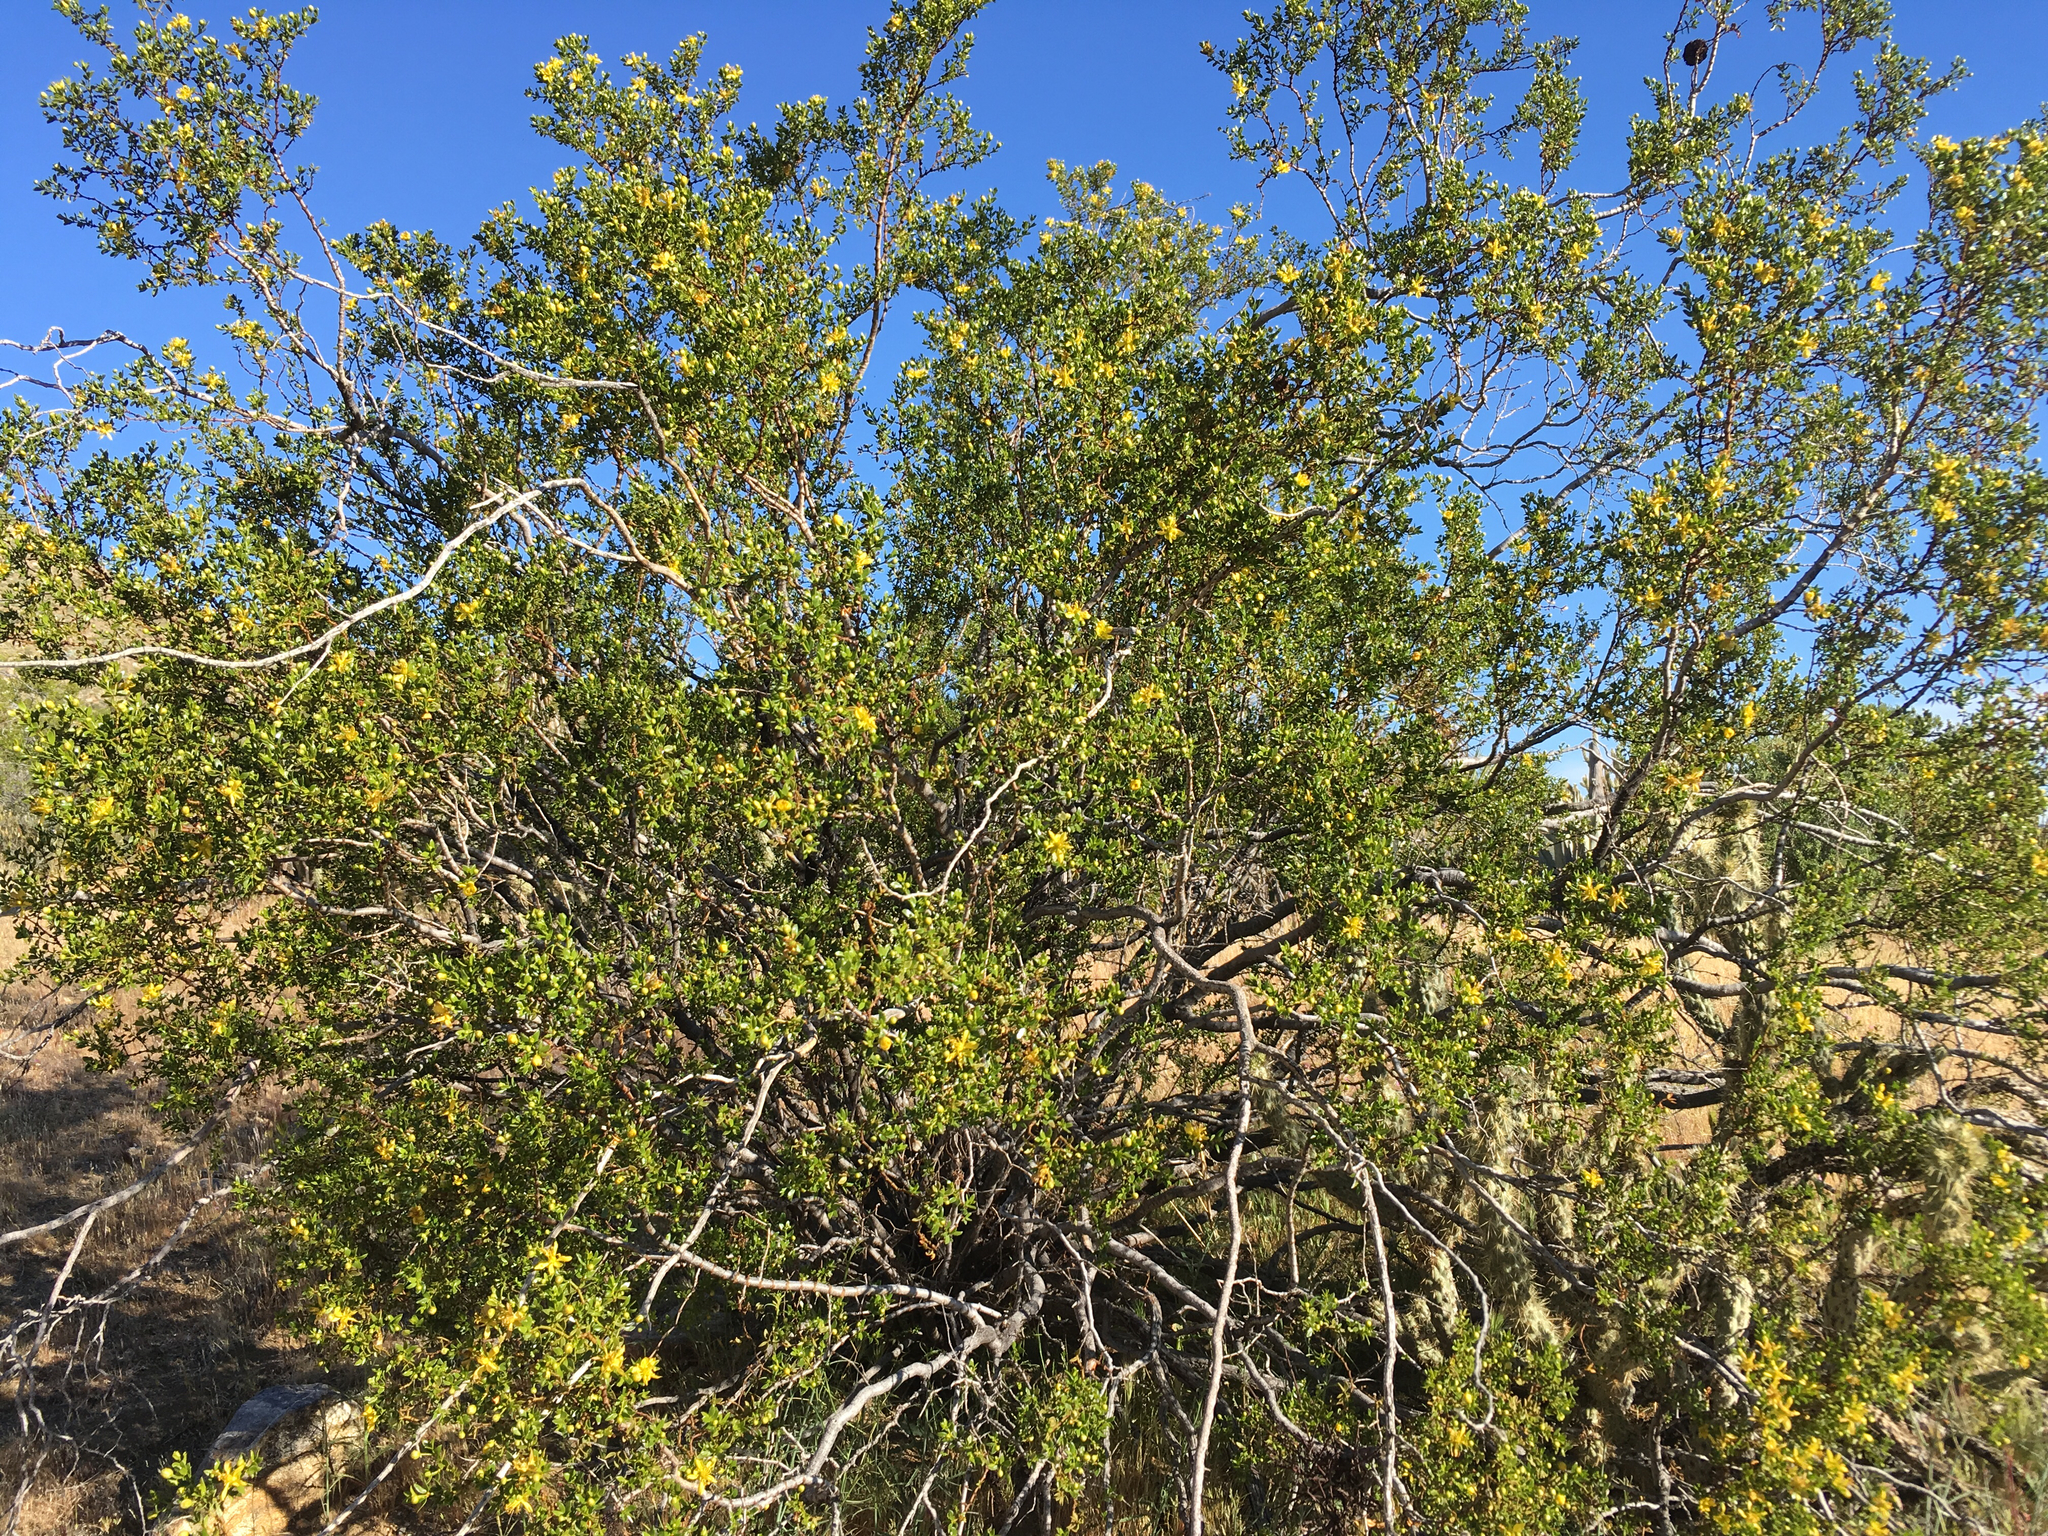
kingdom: Plantae
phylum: Tracheophyta
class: Magnoliopsida
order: Zygophyllales
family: Zygophyllaceae
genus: Larrea
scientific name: Larrea tridentata
